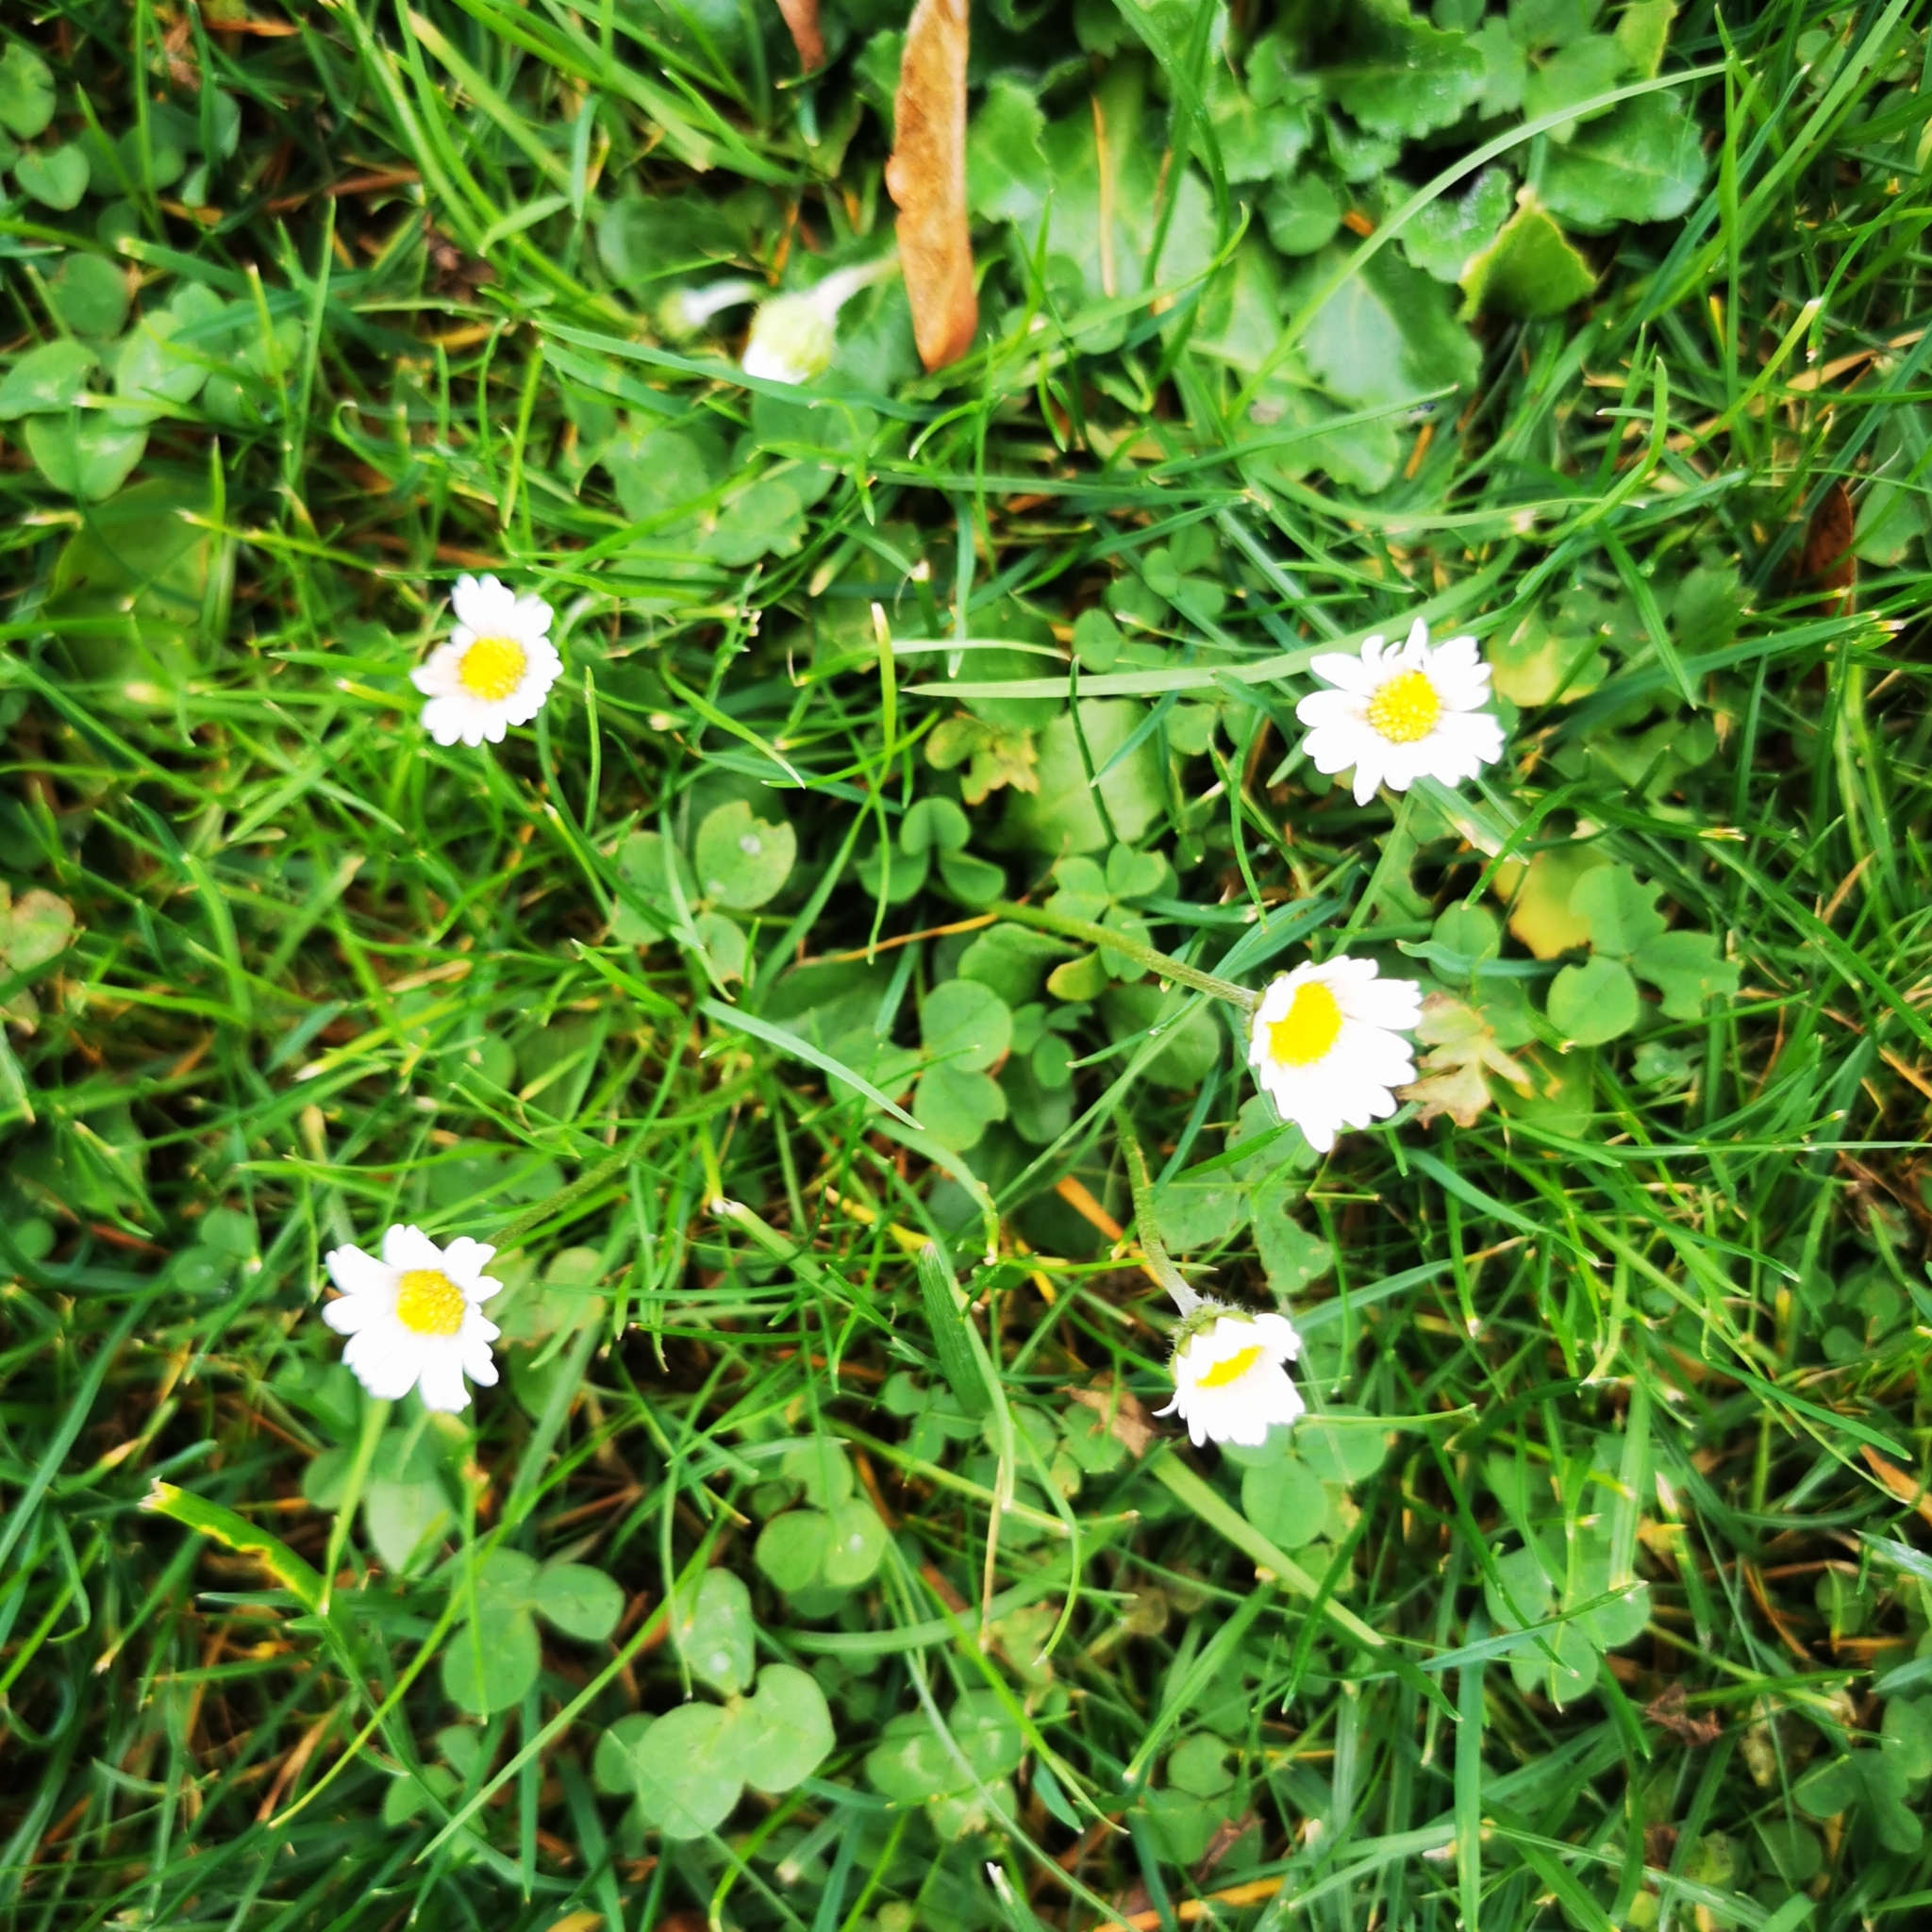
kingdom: Plantae
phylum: Tracheophyta
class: Magnoliopsida
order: Asterales
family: Asteraceae
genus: Bellis
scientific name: Bellis perennis
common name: Lawndaisy
